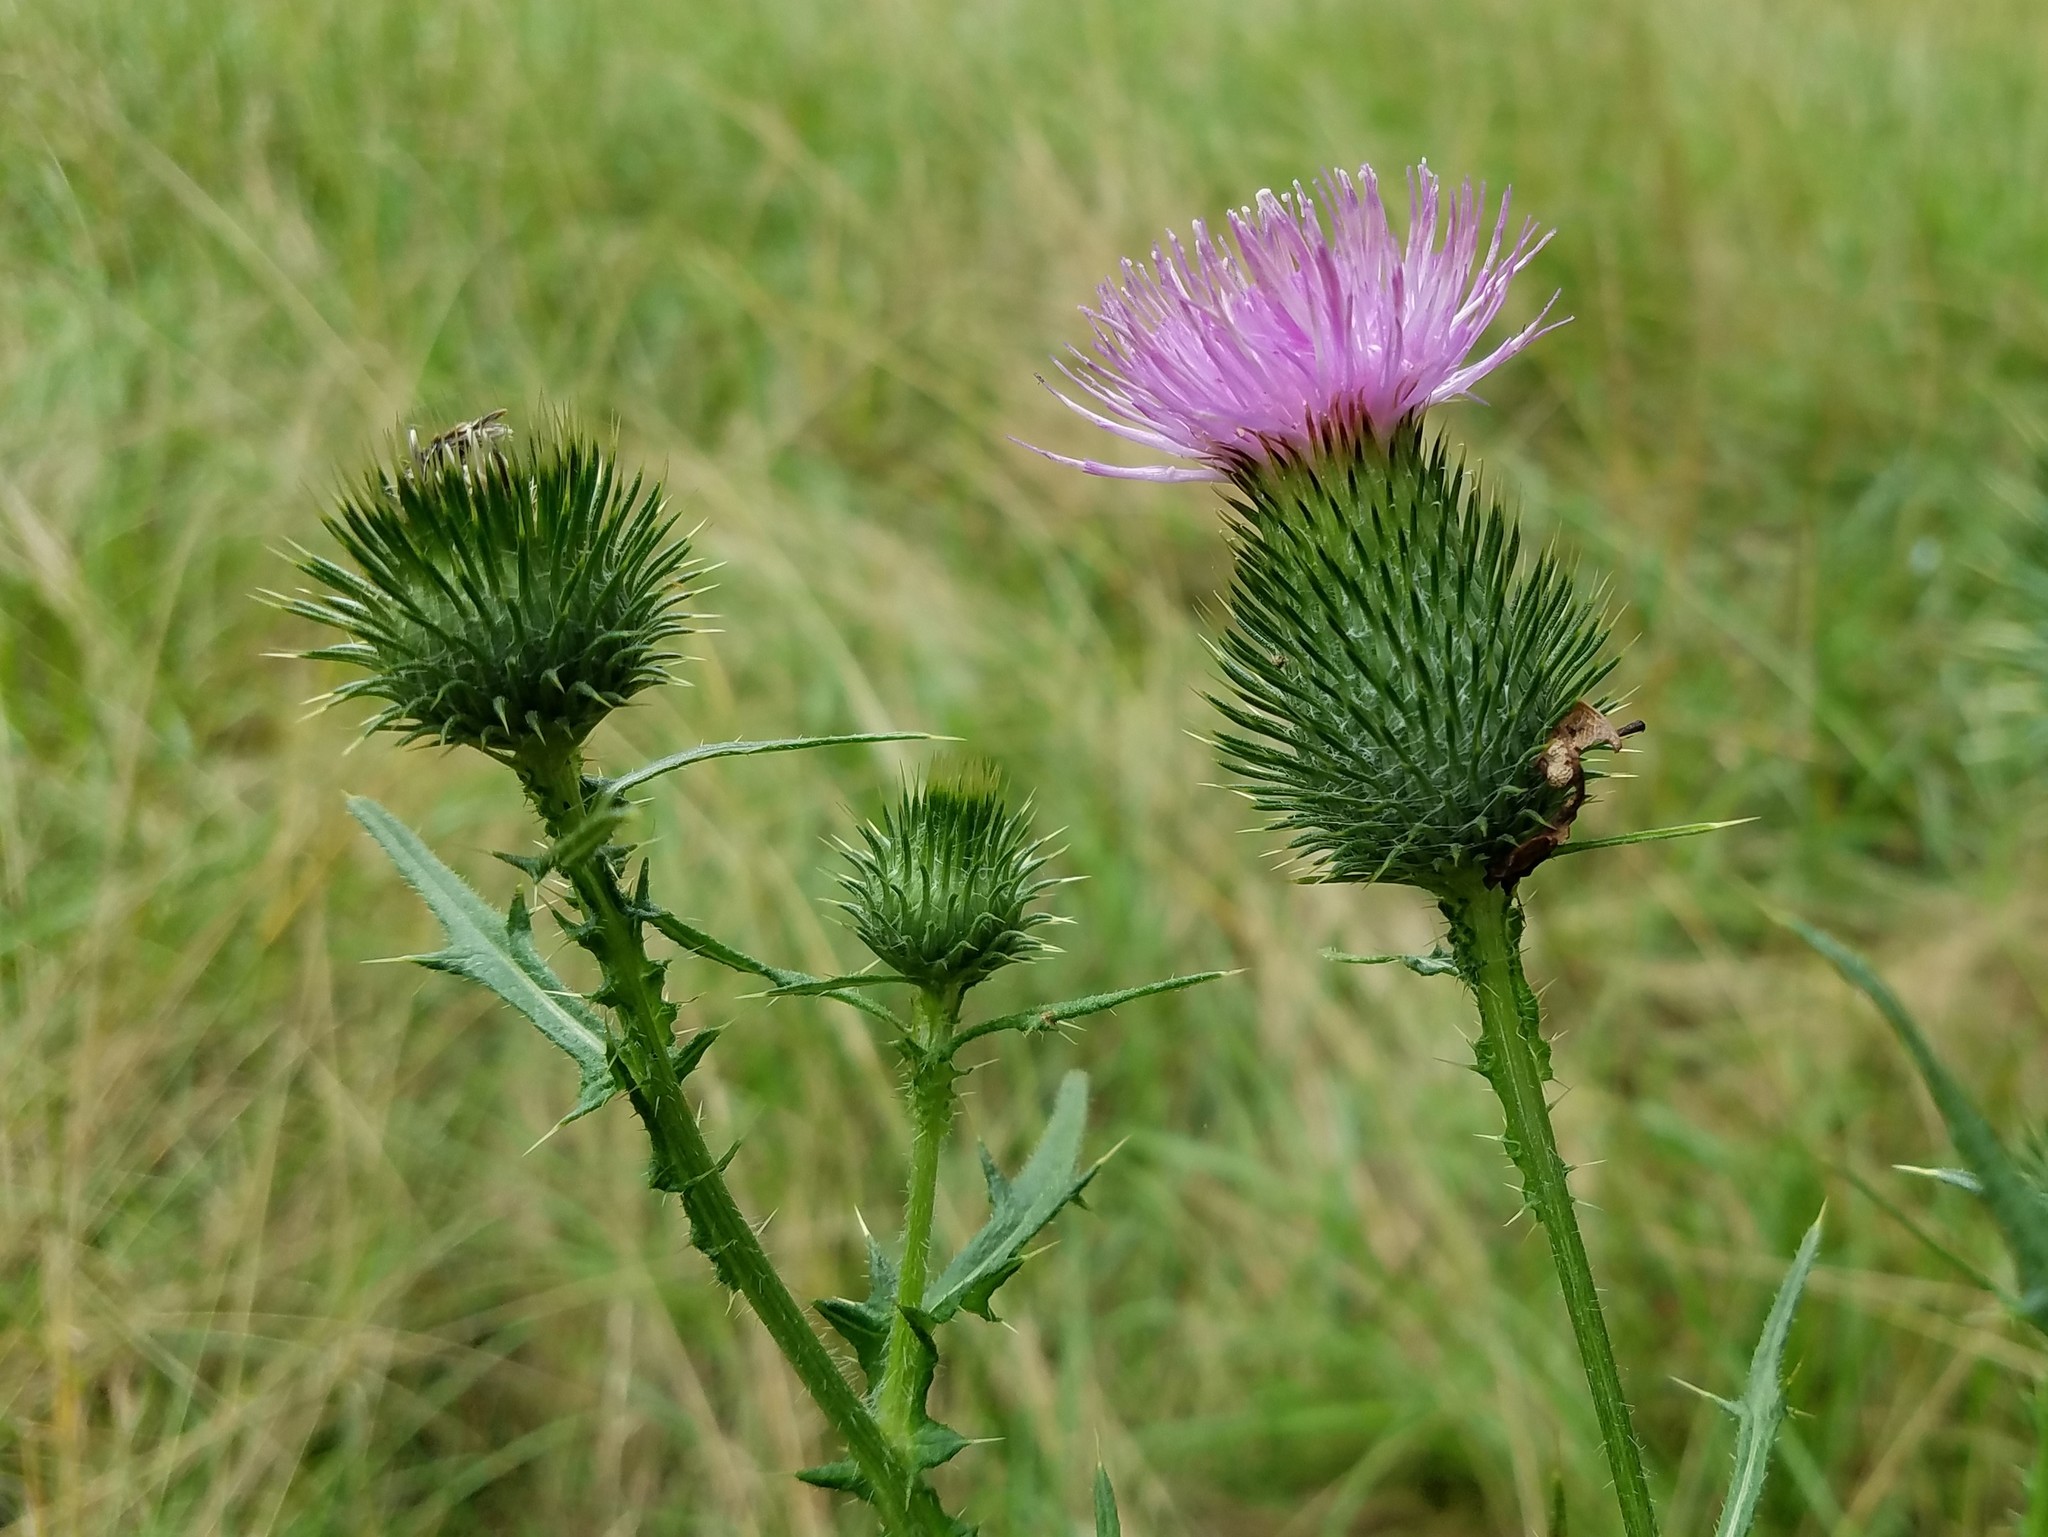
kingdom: Plantae
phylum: Tracheophyta
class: Magnoliopsida
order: Asterales
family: Asteraceae
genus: Cirsium
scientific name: Cirsium vulgare
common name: Bull thistle
